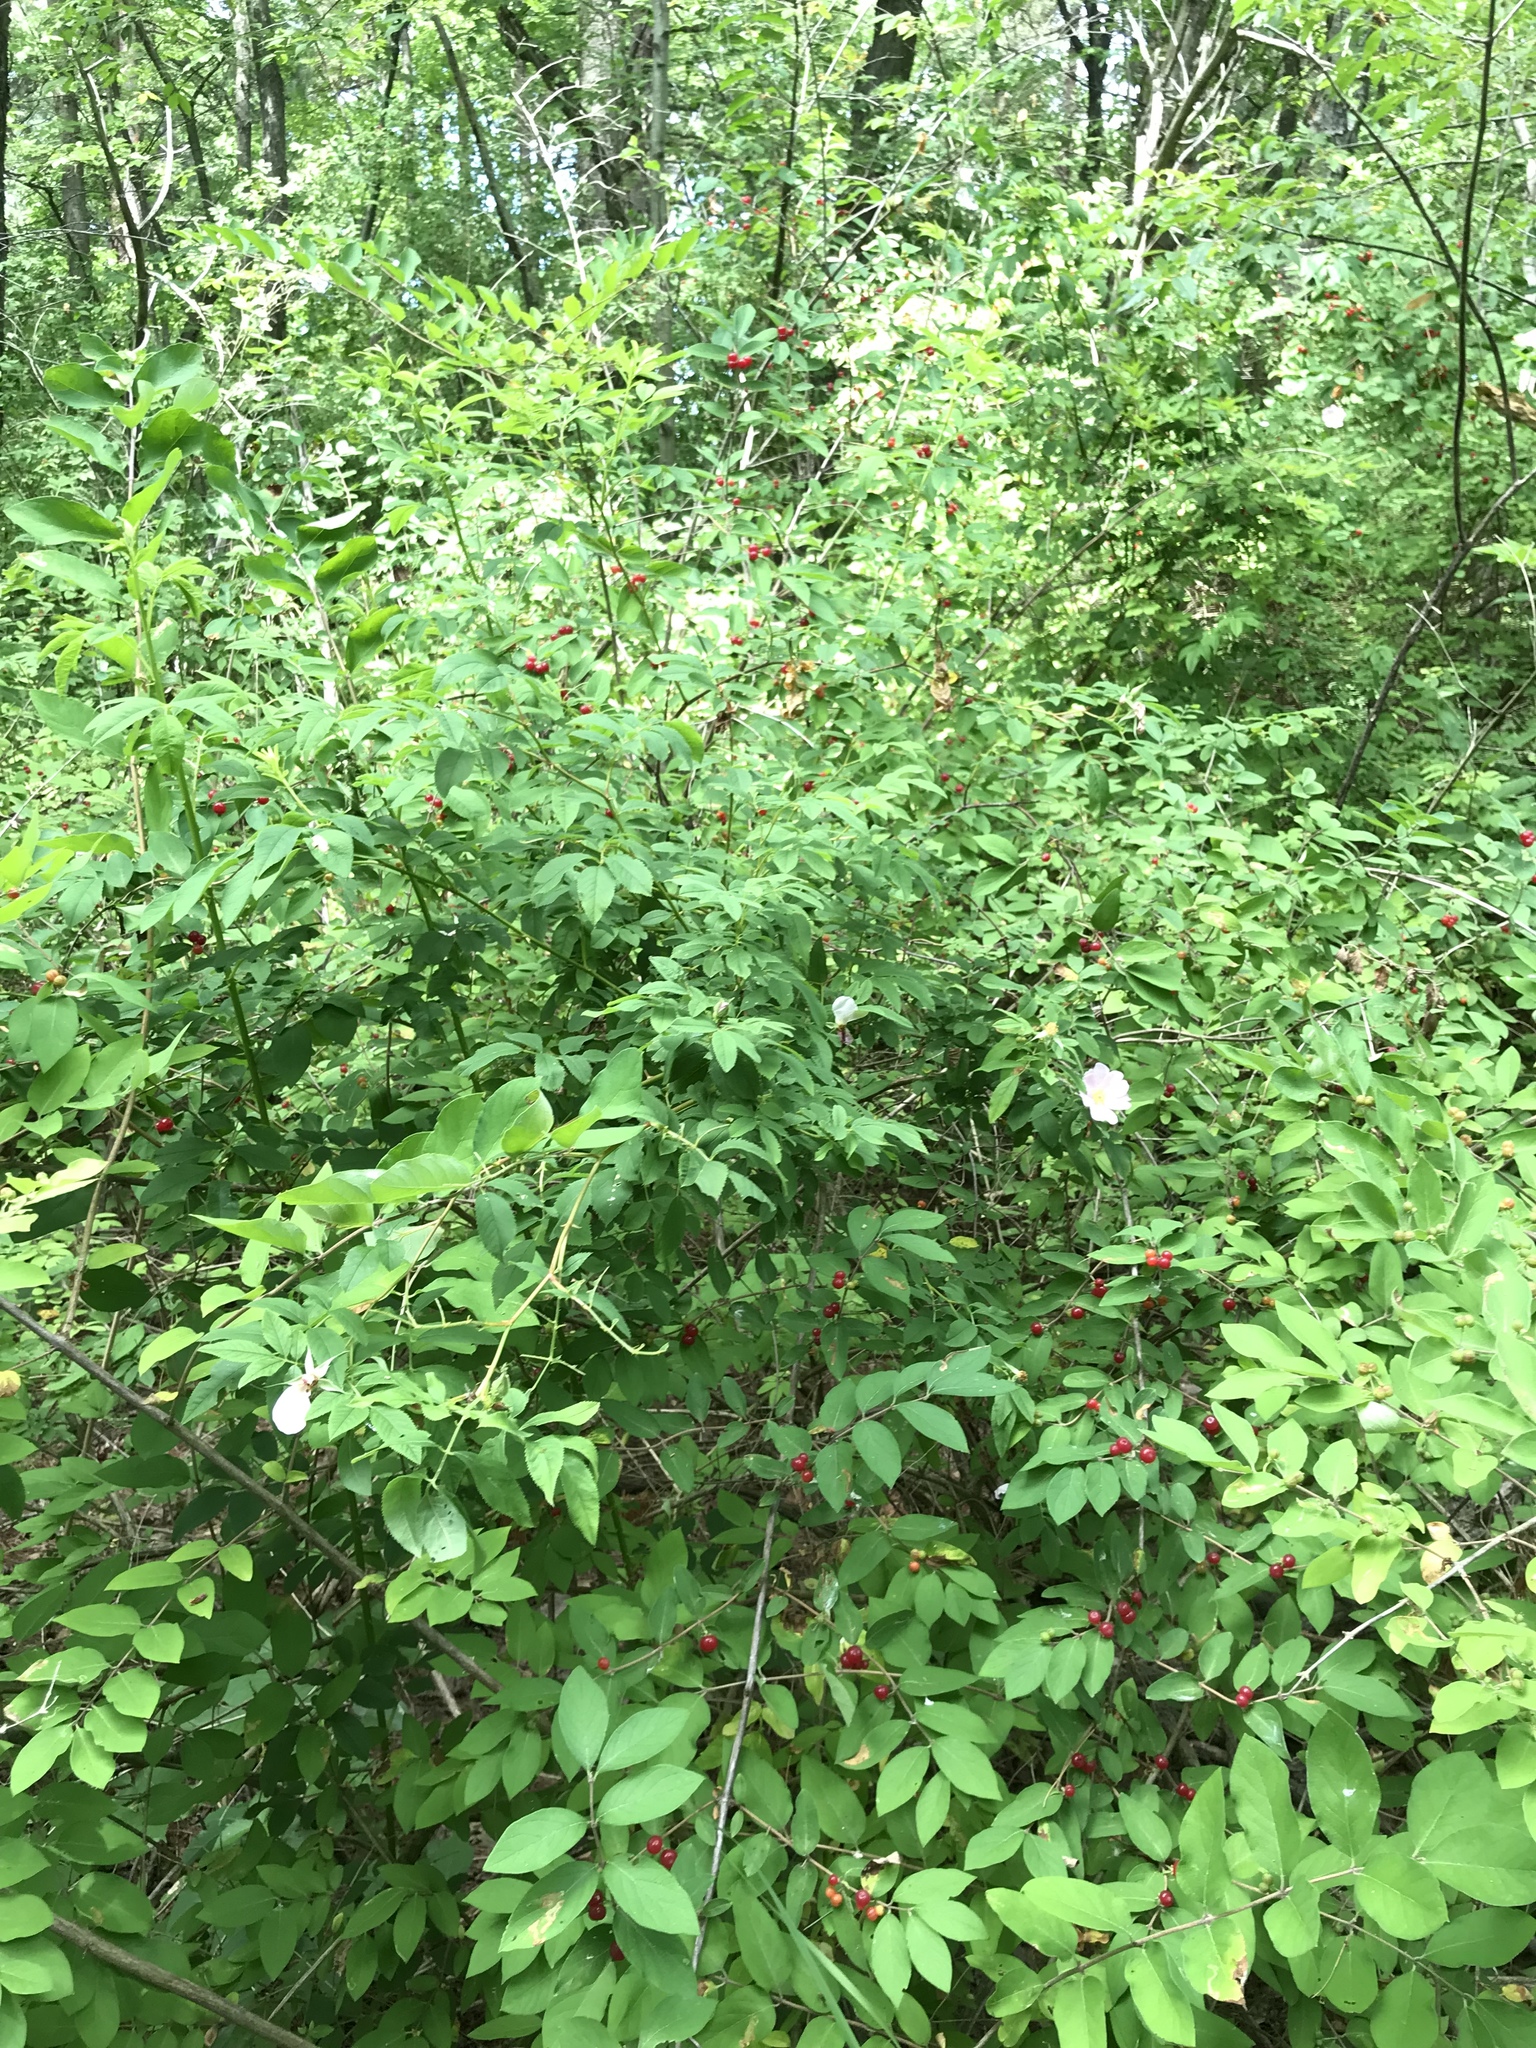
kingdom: Plantae
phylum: Tracheophyta
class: Magnoliopsida
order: Rosales
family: Rosaceae
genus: Rosa
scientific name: Rosa palustris
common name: Swamp rose
